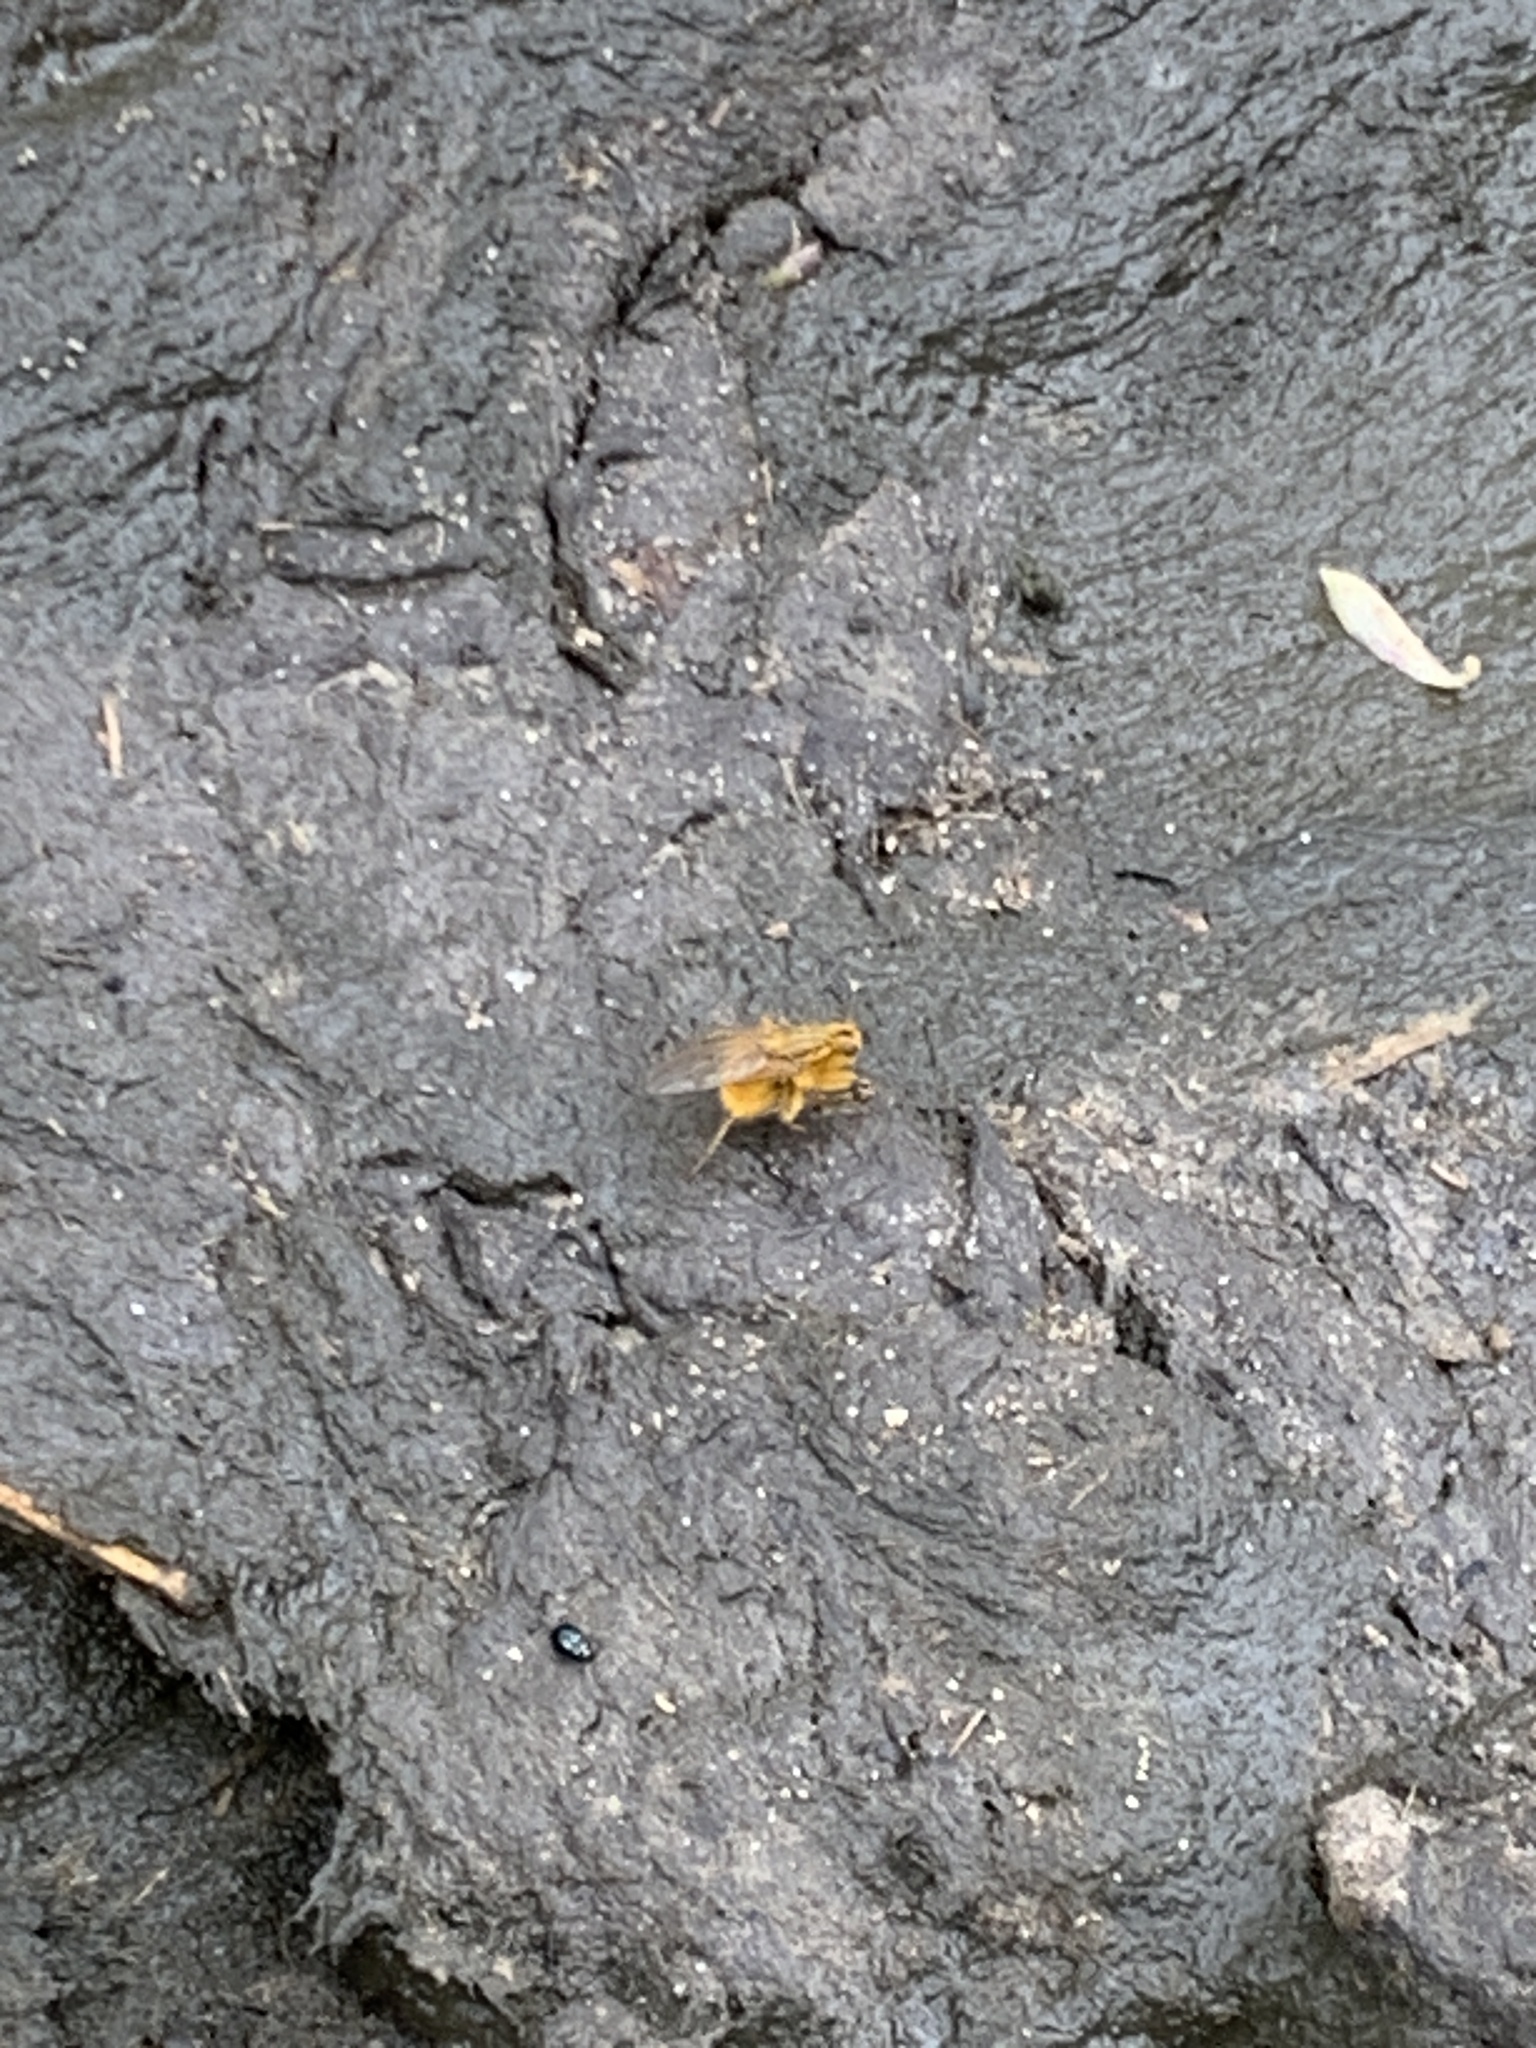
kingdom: Animalia
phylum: Arthropoda
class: Insecta
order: Diptera
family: Scathophagidae
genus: Scathophaga
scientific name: Scathophaga stercoraria
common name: Yellow dung fly
